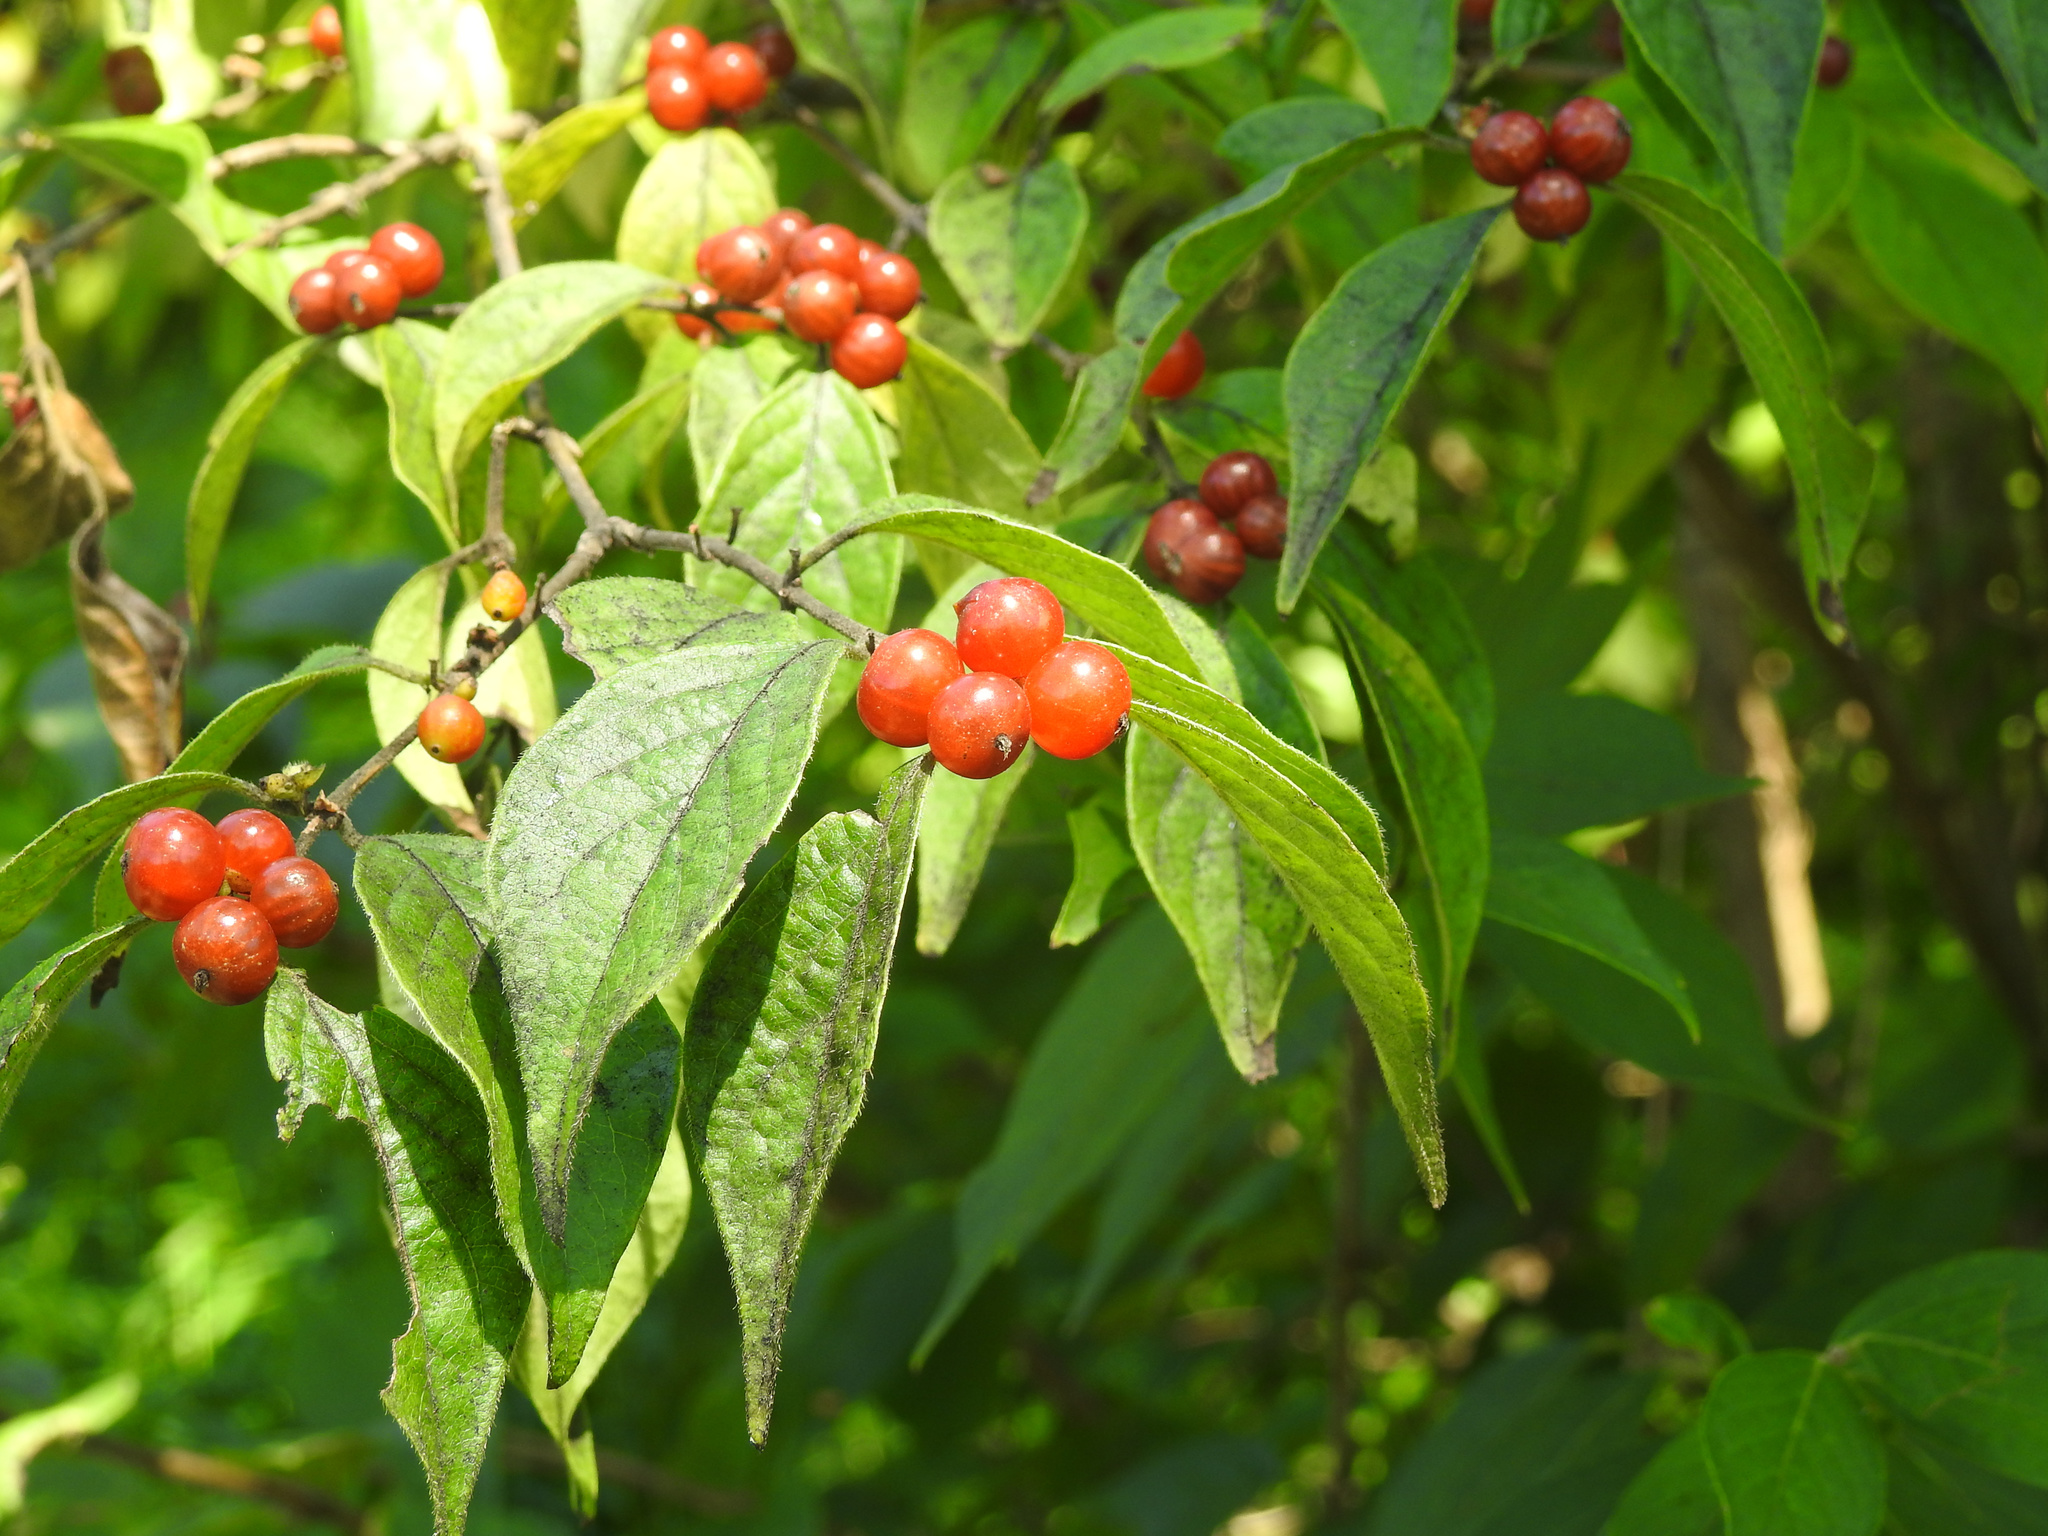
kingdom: Plantae
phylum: Tracheophyta
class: Magnoliopsida
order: Dipsacales
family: Caprifoliaceae
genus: Lonicera
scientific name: Lonicera maackii
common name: Amur honeysuckle
